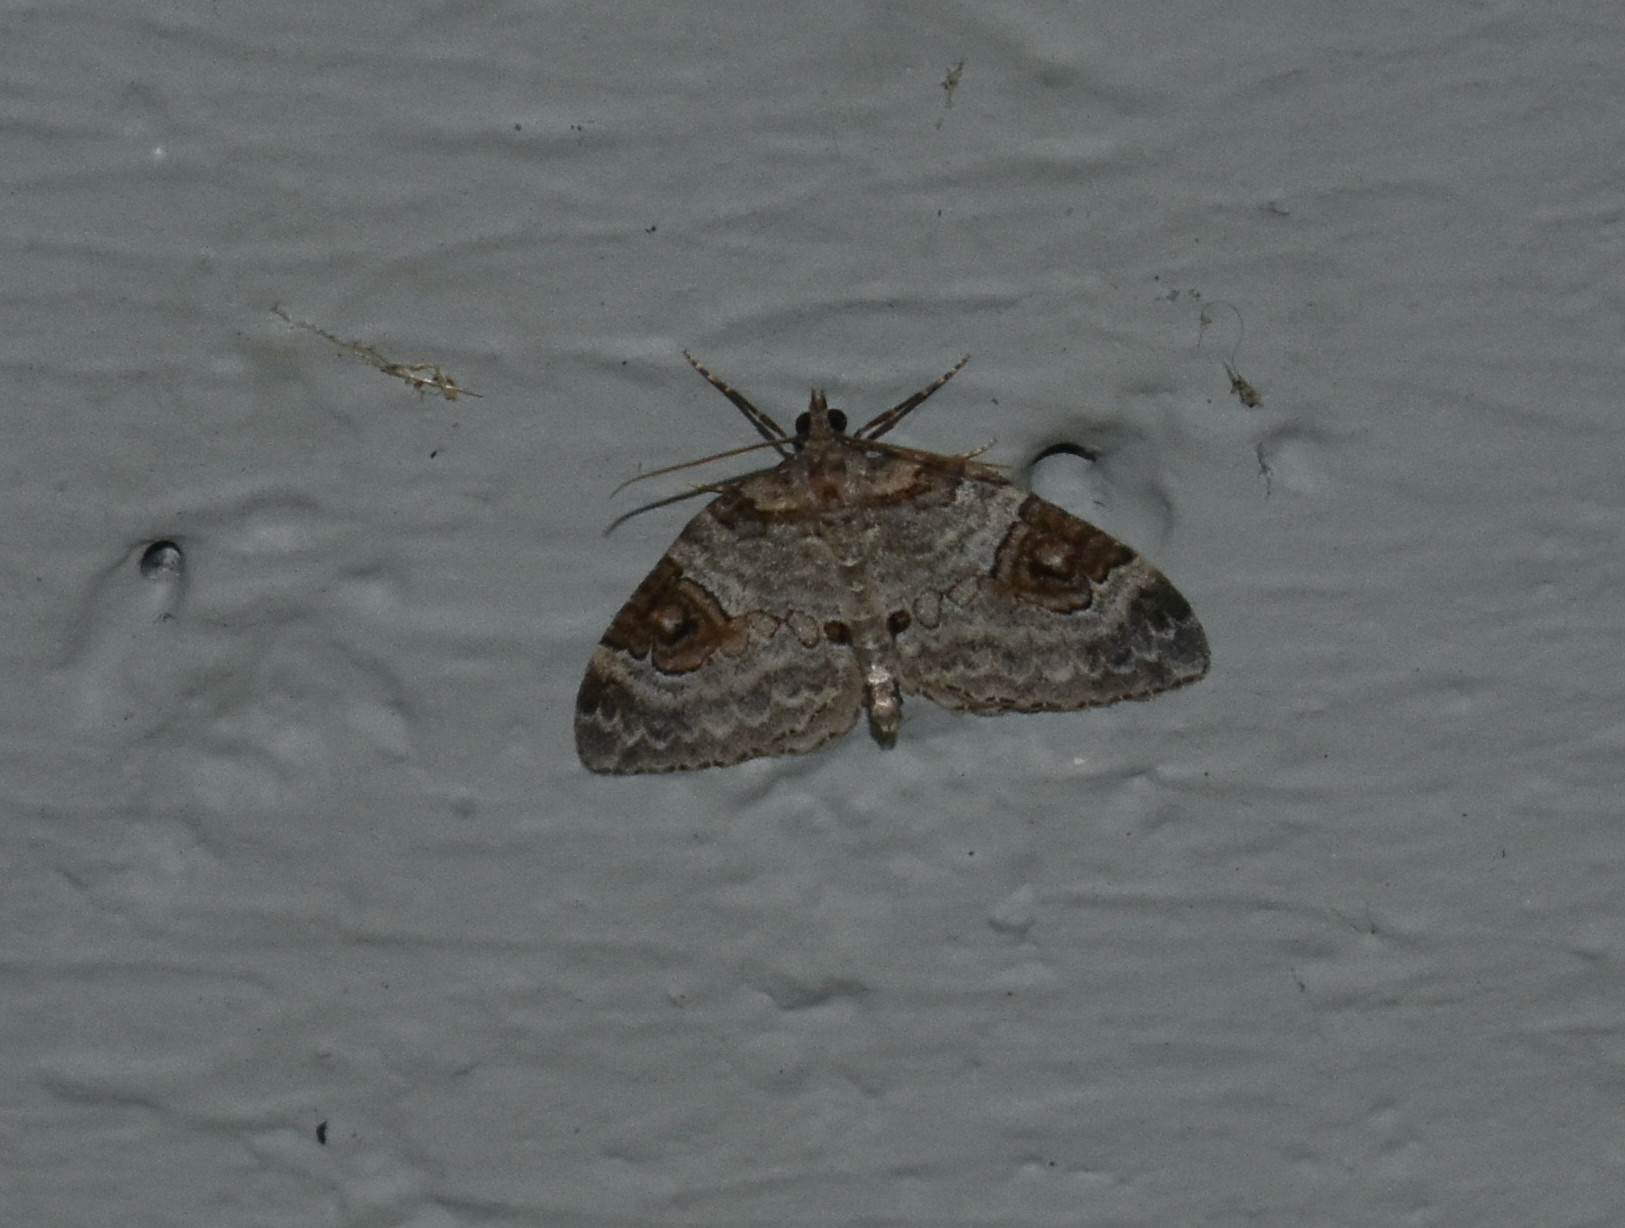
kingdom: Animalia
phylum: Arthropoda
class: Insecta
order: Lepidoptera
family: Geometridae
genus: Plemyria
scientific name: Plemyria georgii
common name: George's carpet moth
